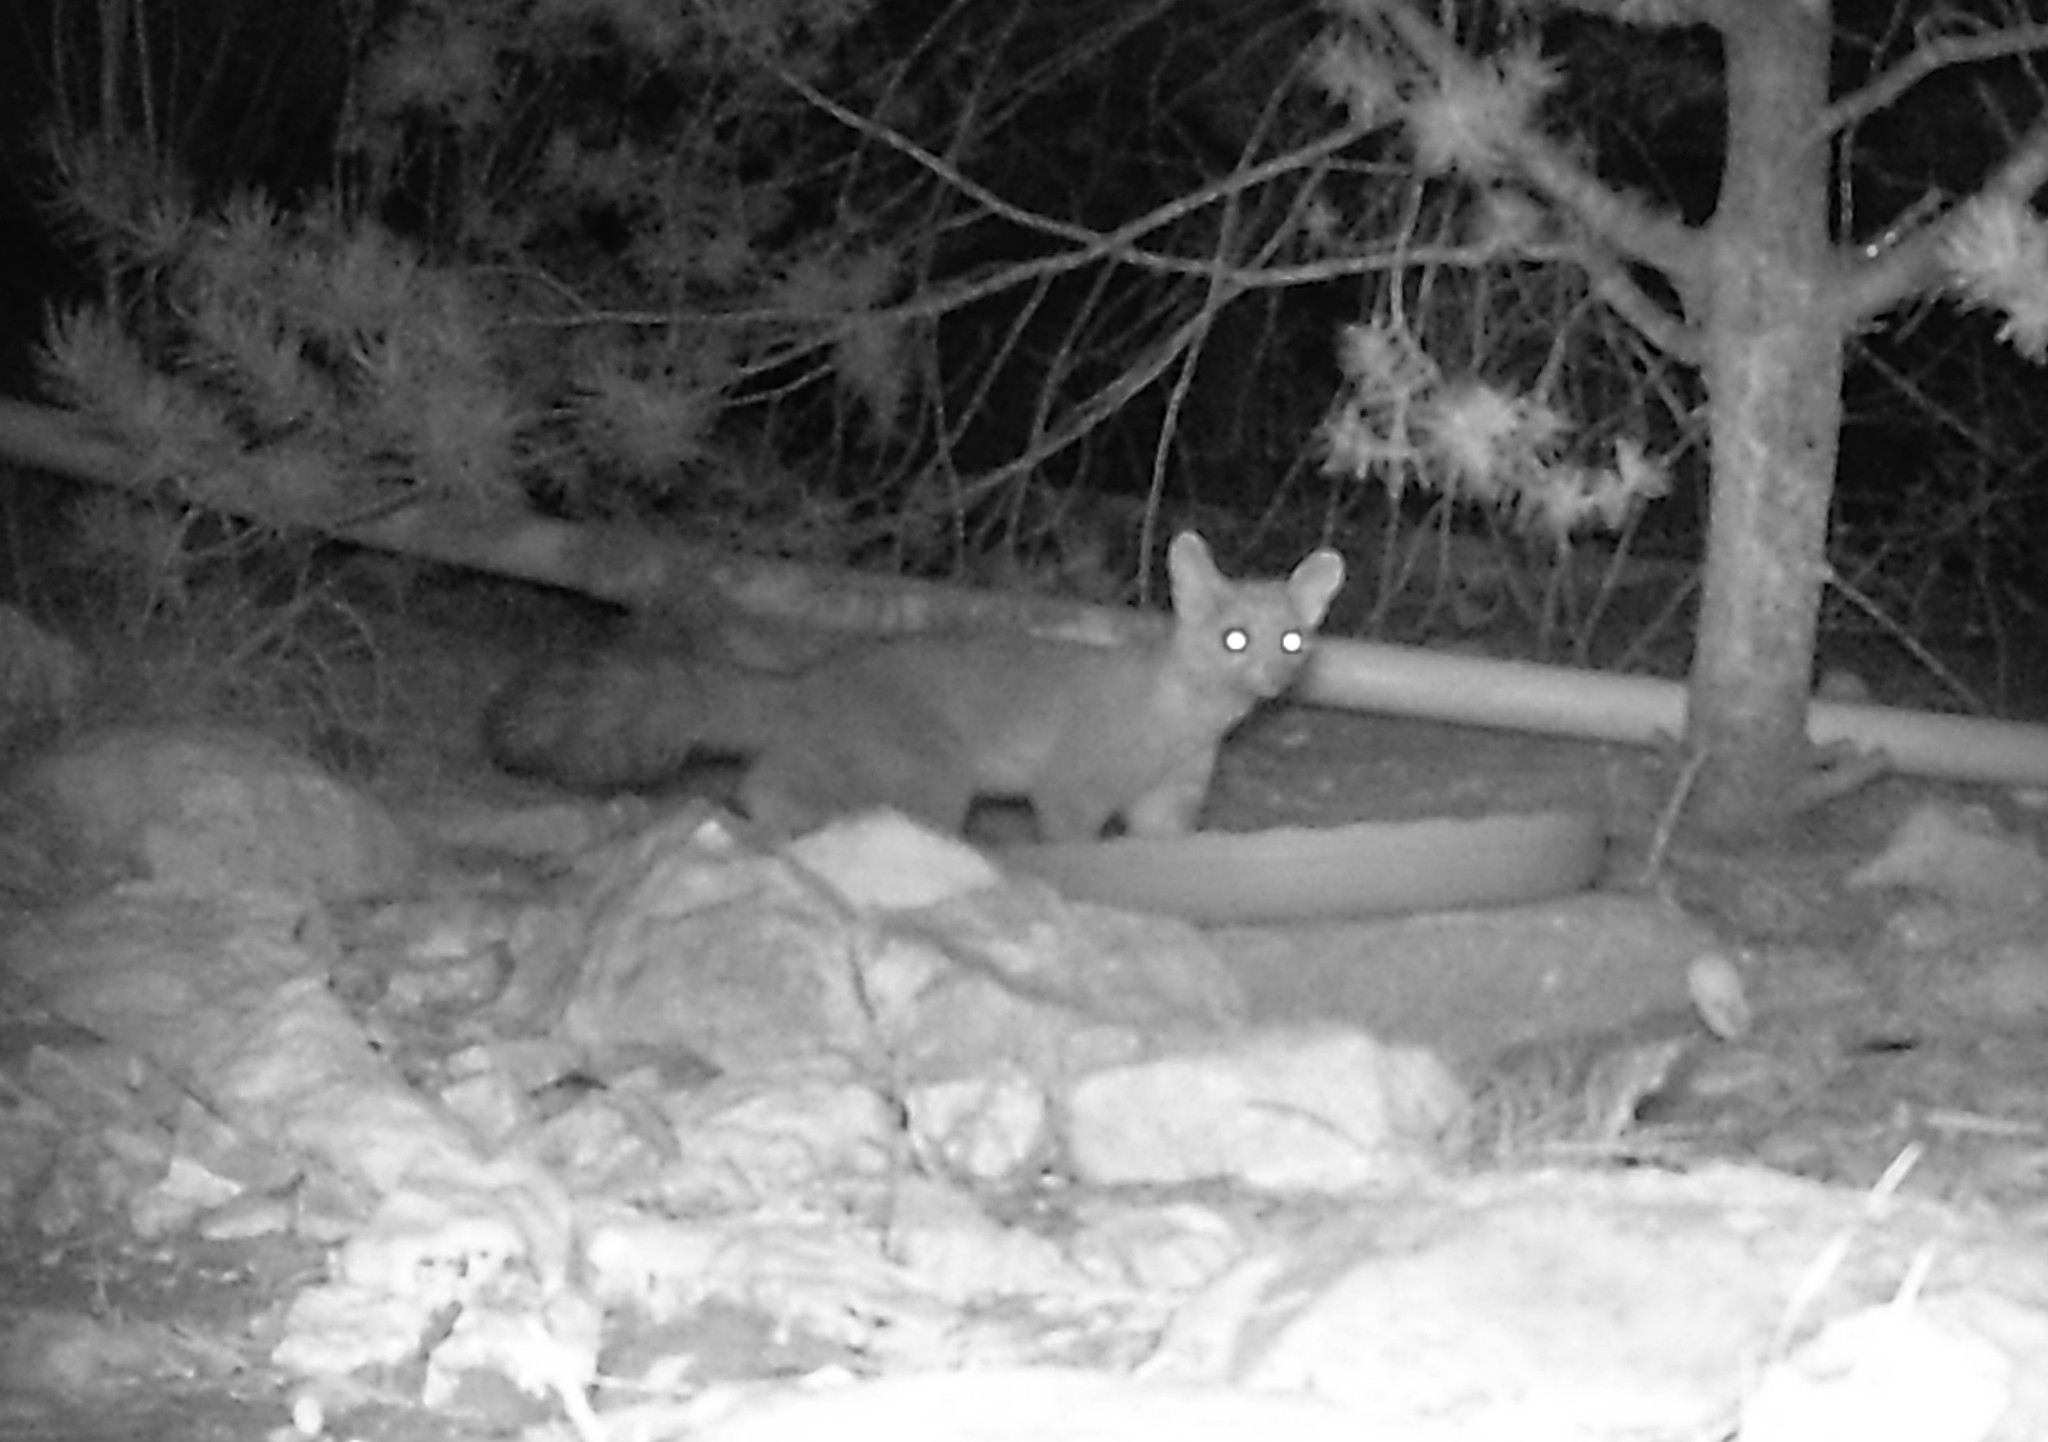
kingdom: Animalia
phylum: Chordata
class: Mammalia
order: Carnivora
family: Procyonidae
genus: Bassariscus
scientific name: Bassariscus astutus
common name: Ringtail
